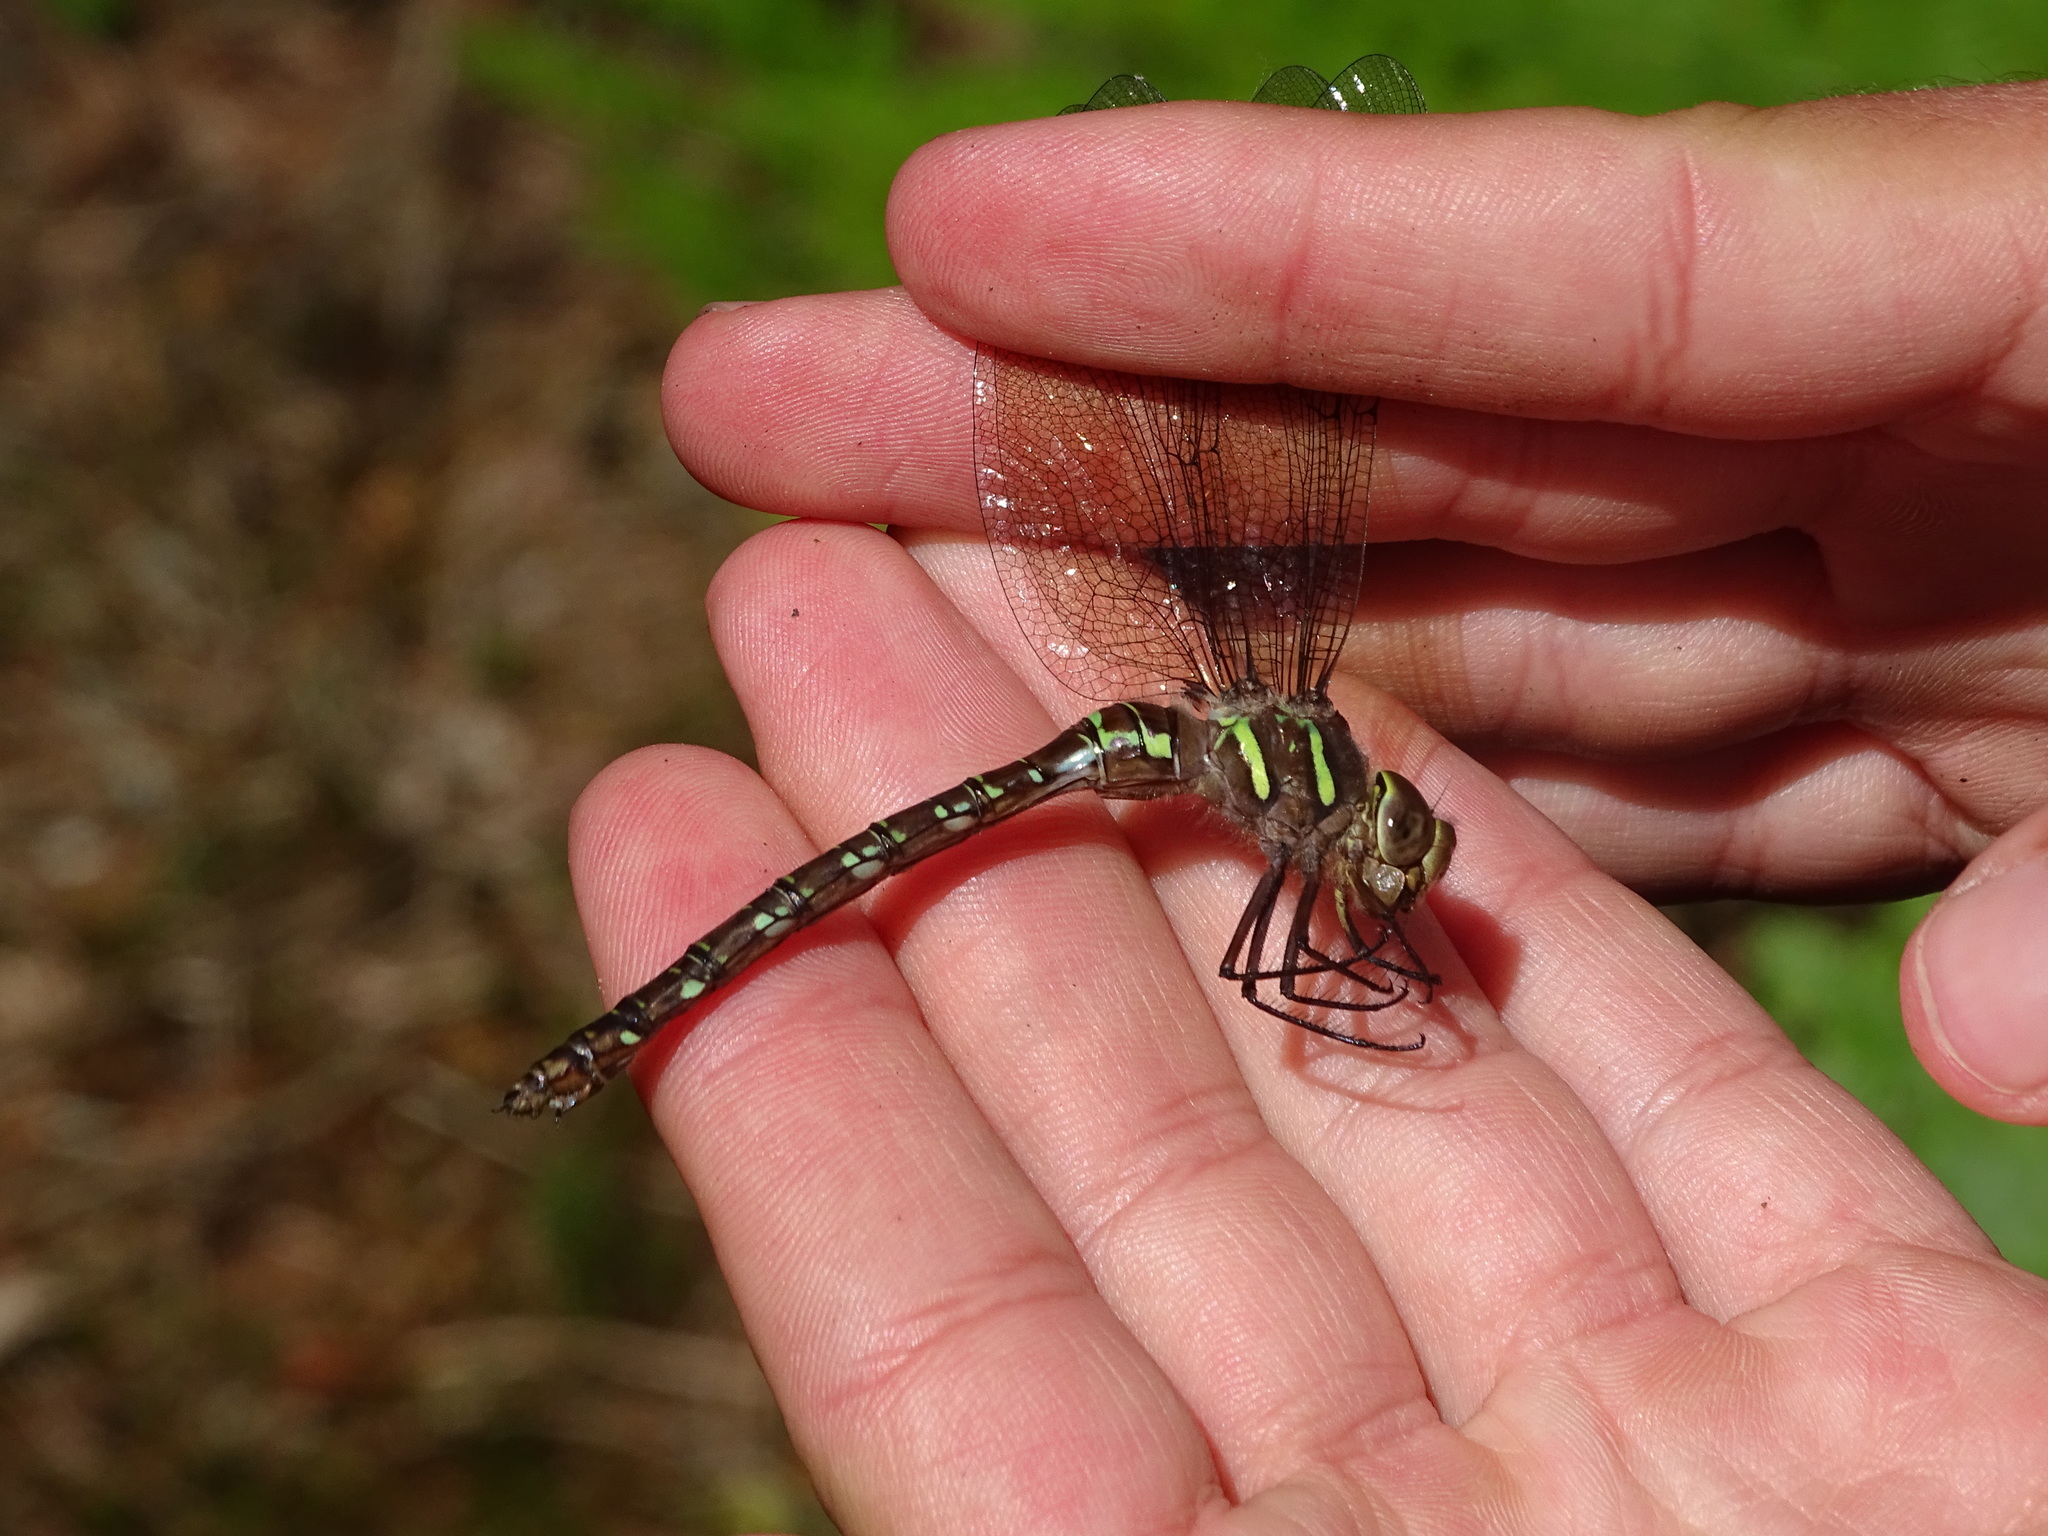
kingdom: Animalia
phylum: Arthropoda
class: Insecta
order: Odonata
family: Aeshnidae
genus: Aeshna
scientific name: Aeshna umbrosa
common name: Shadow darner
